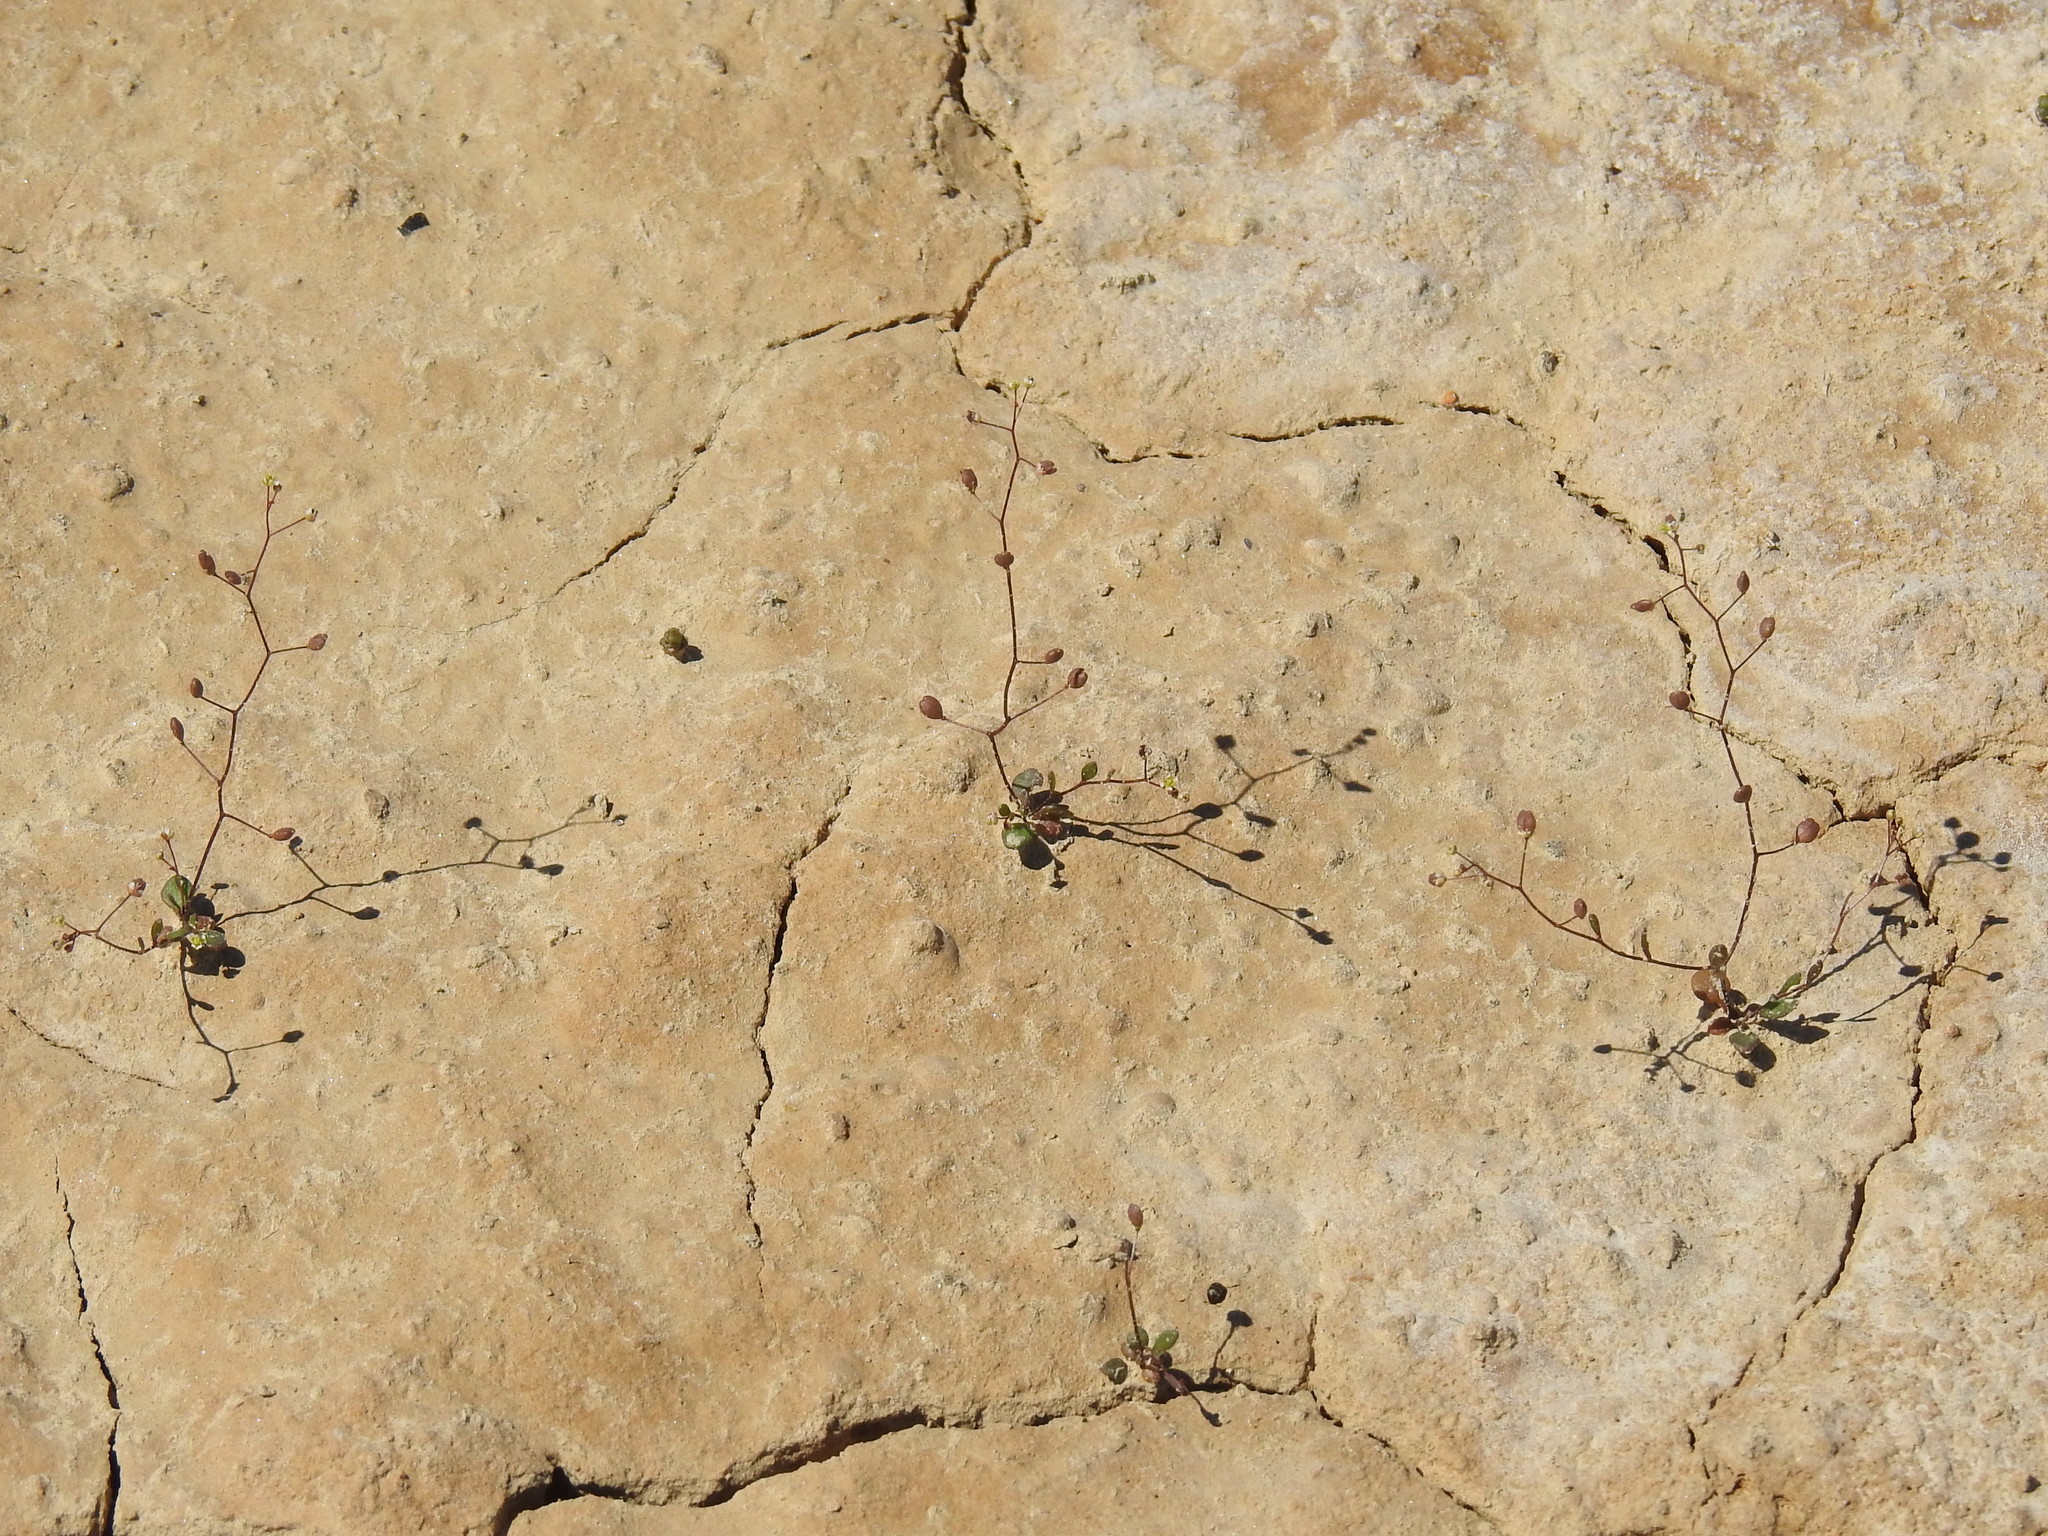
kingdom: Plantae
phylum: Tracheophyta
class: Magnoliopsida
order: Brassicales
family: Brassicaceae
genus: Hornungia
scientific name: Hornungia procumbens
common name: Oval purse
